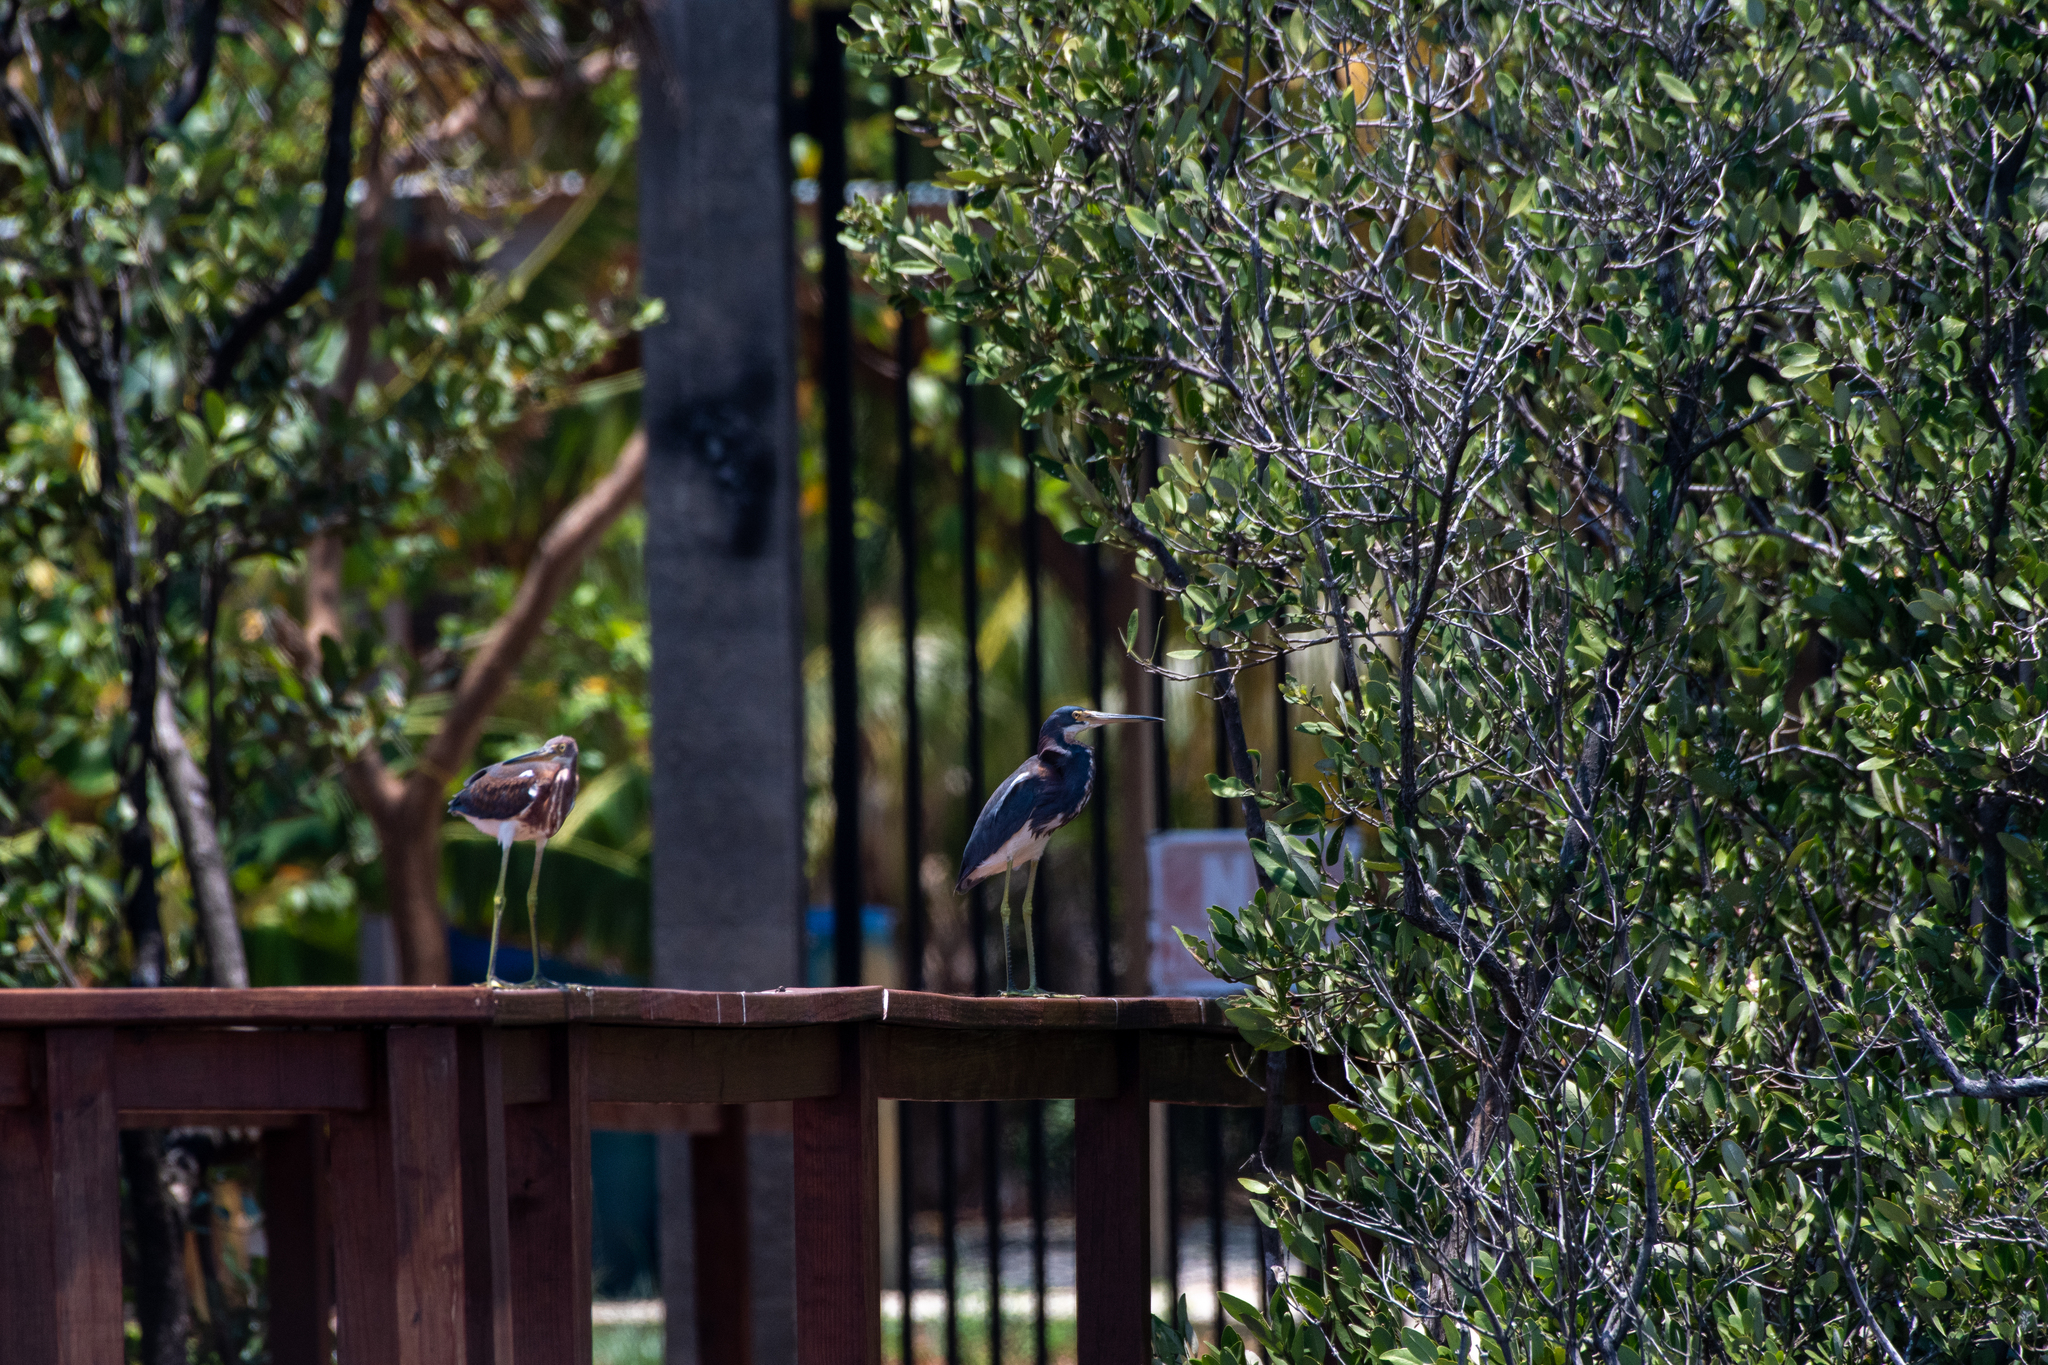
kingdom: Animalia
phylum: Chordata
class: Aves
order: Pelecaniformes
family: Ardeidae
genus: Egretta
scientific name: Egretta tricolor
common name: Tricolored heron
